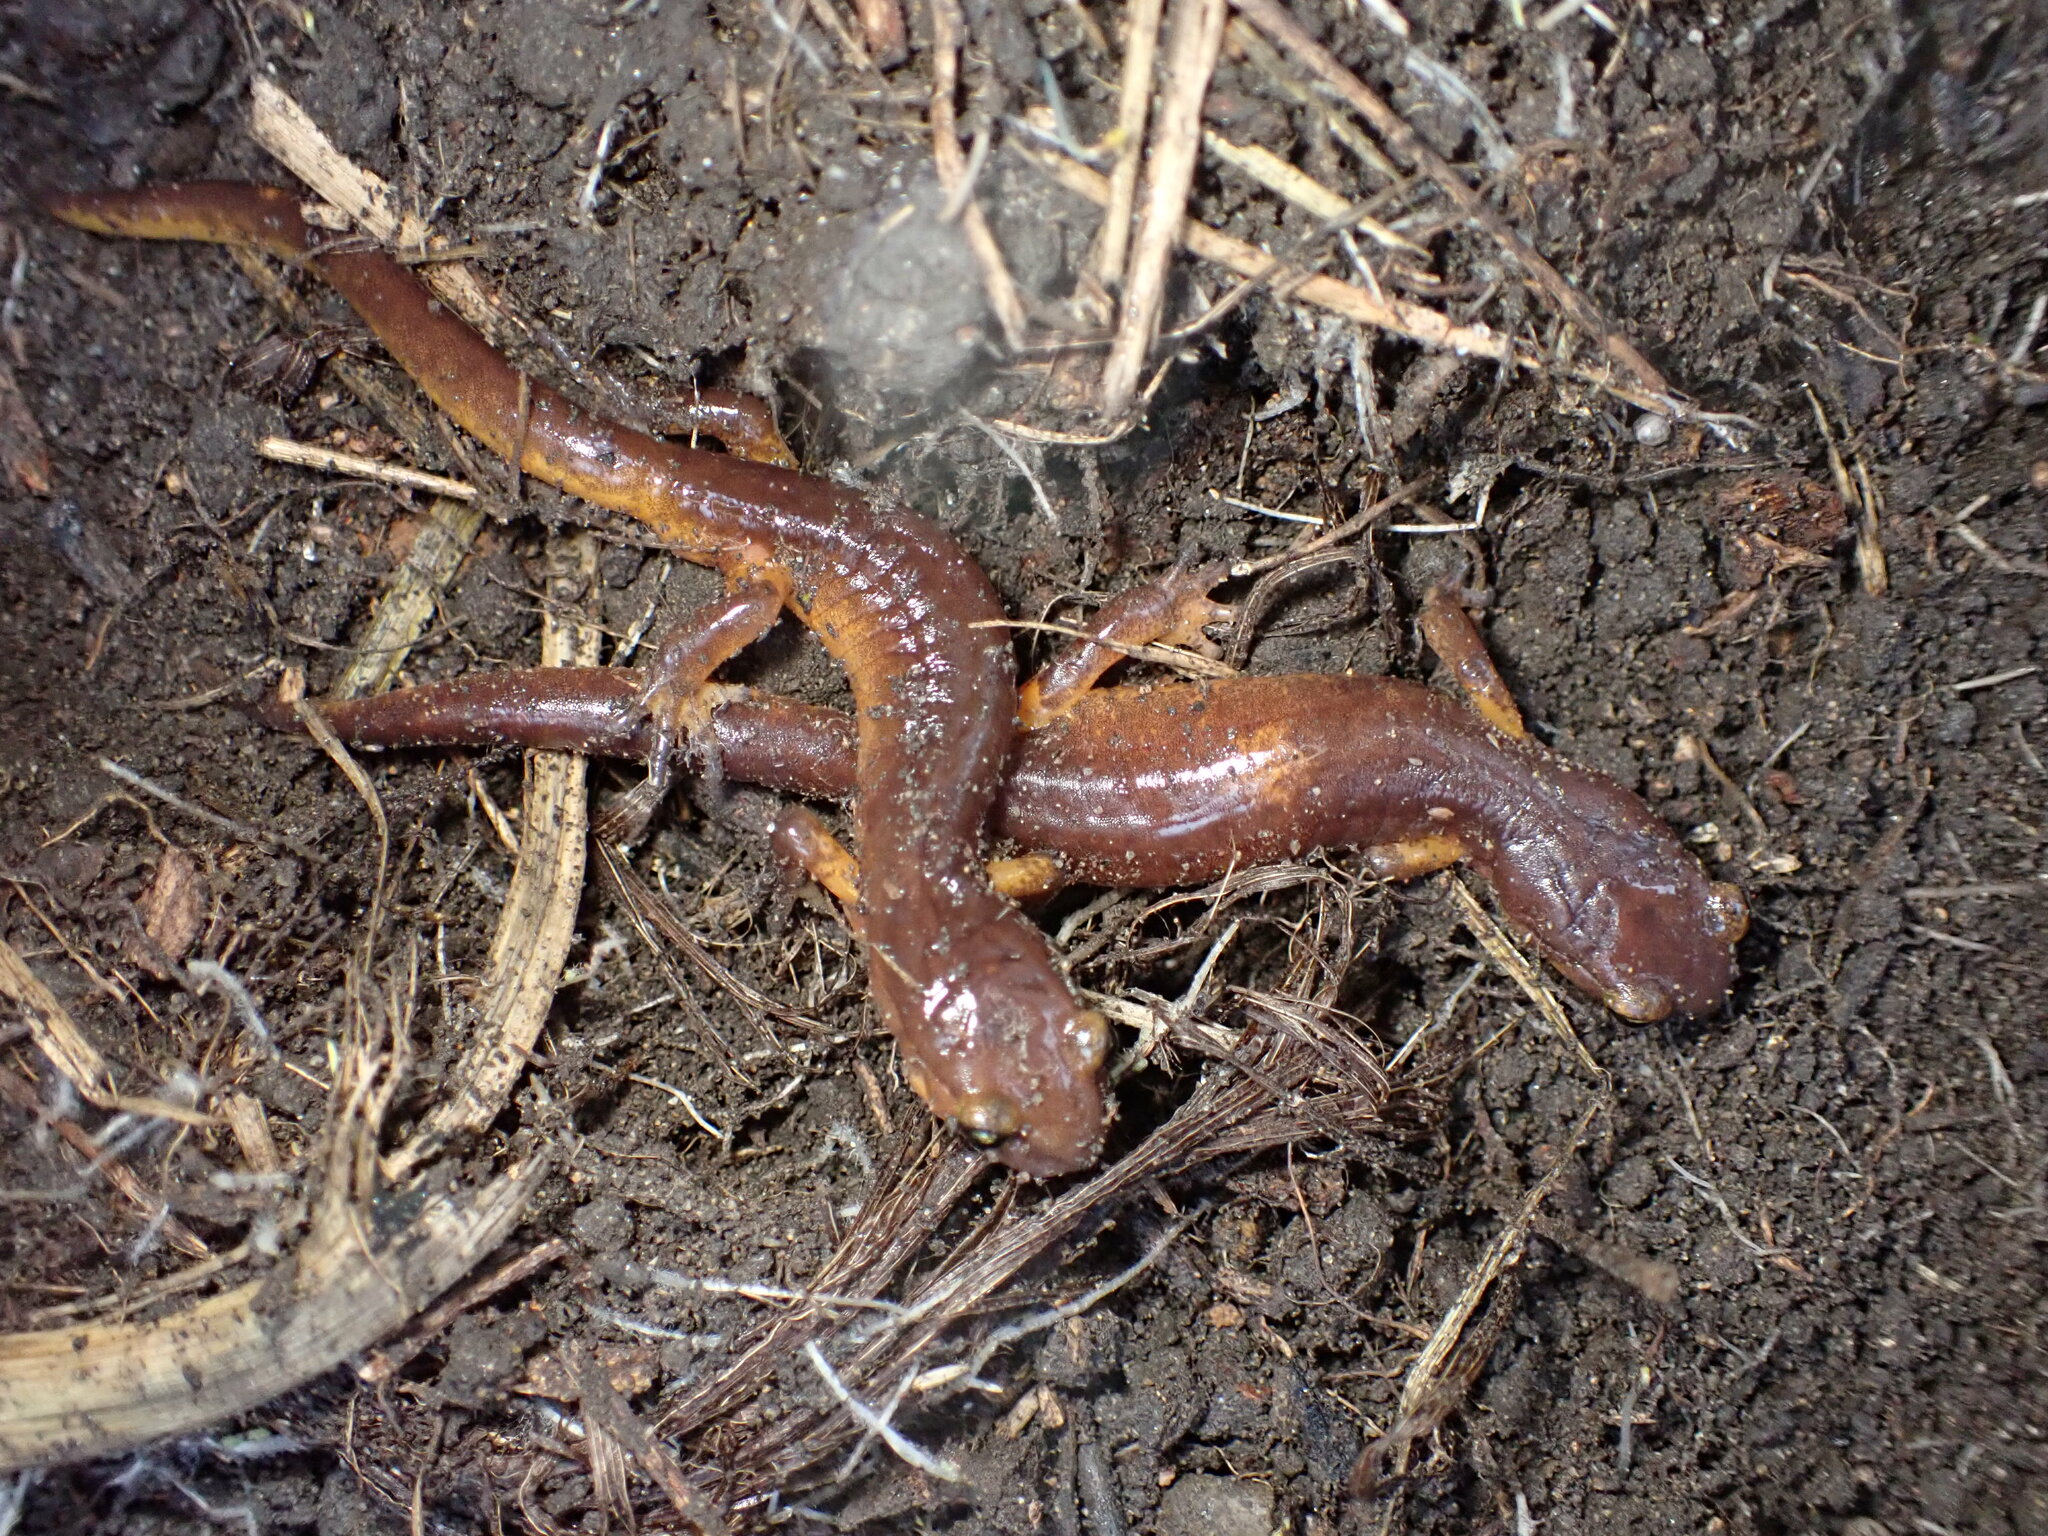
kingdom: Animalia
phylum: Chordata
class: Amphibia
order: Caudata
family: Plethodontidae
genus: Ensatina
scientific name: Ensatina eschscholtzii
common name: Ensatina
